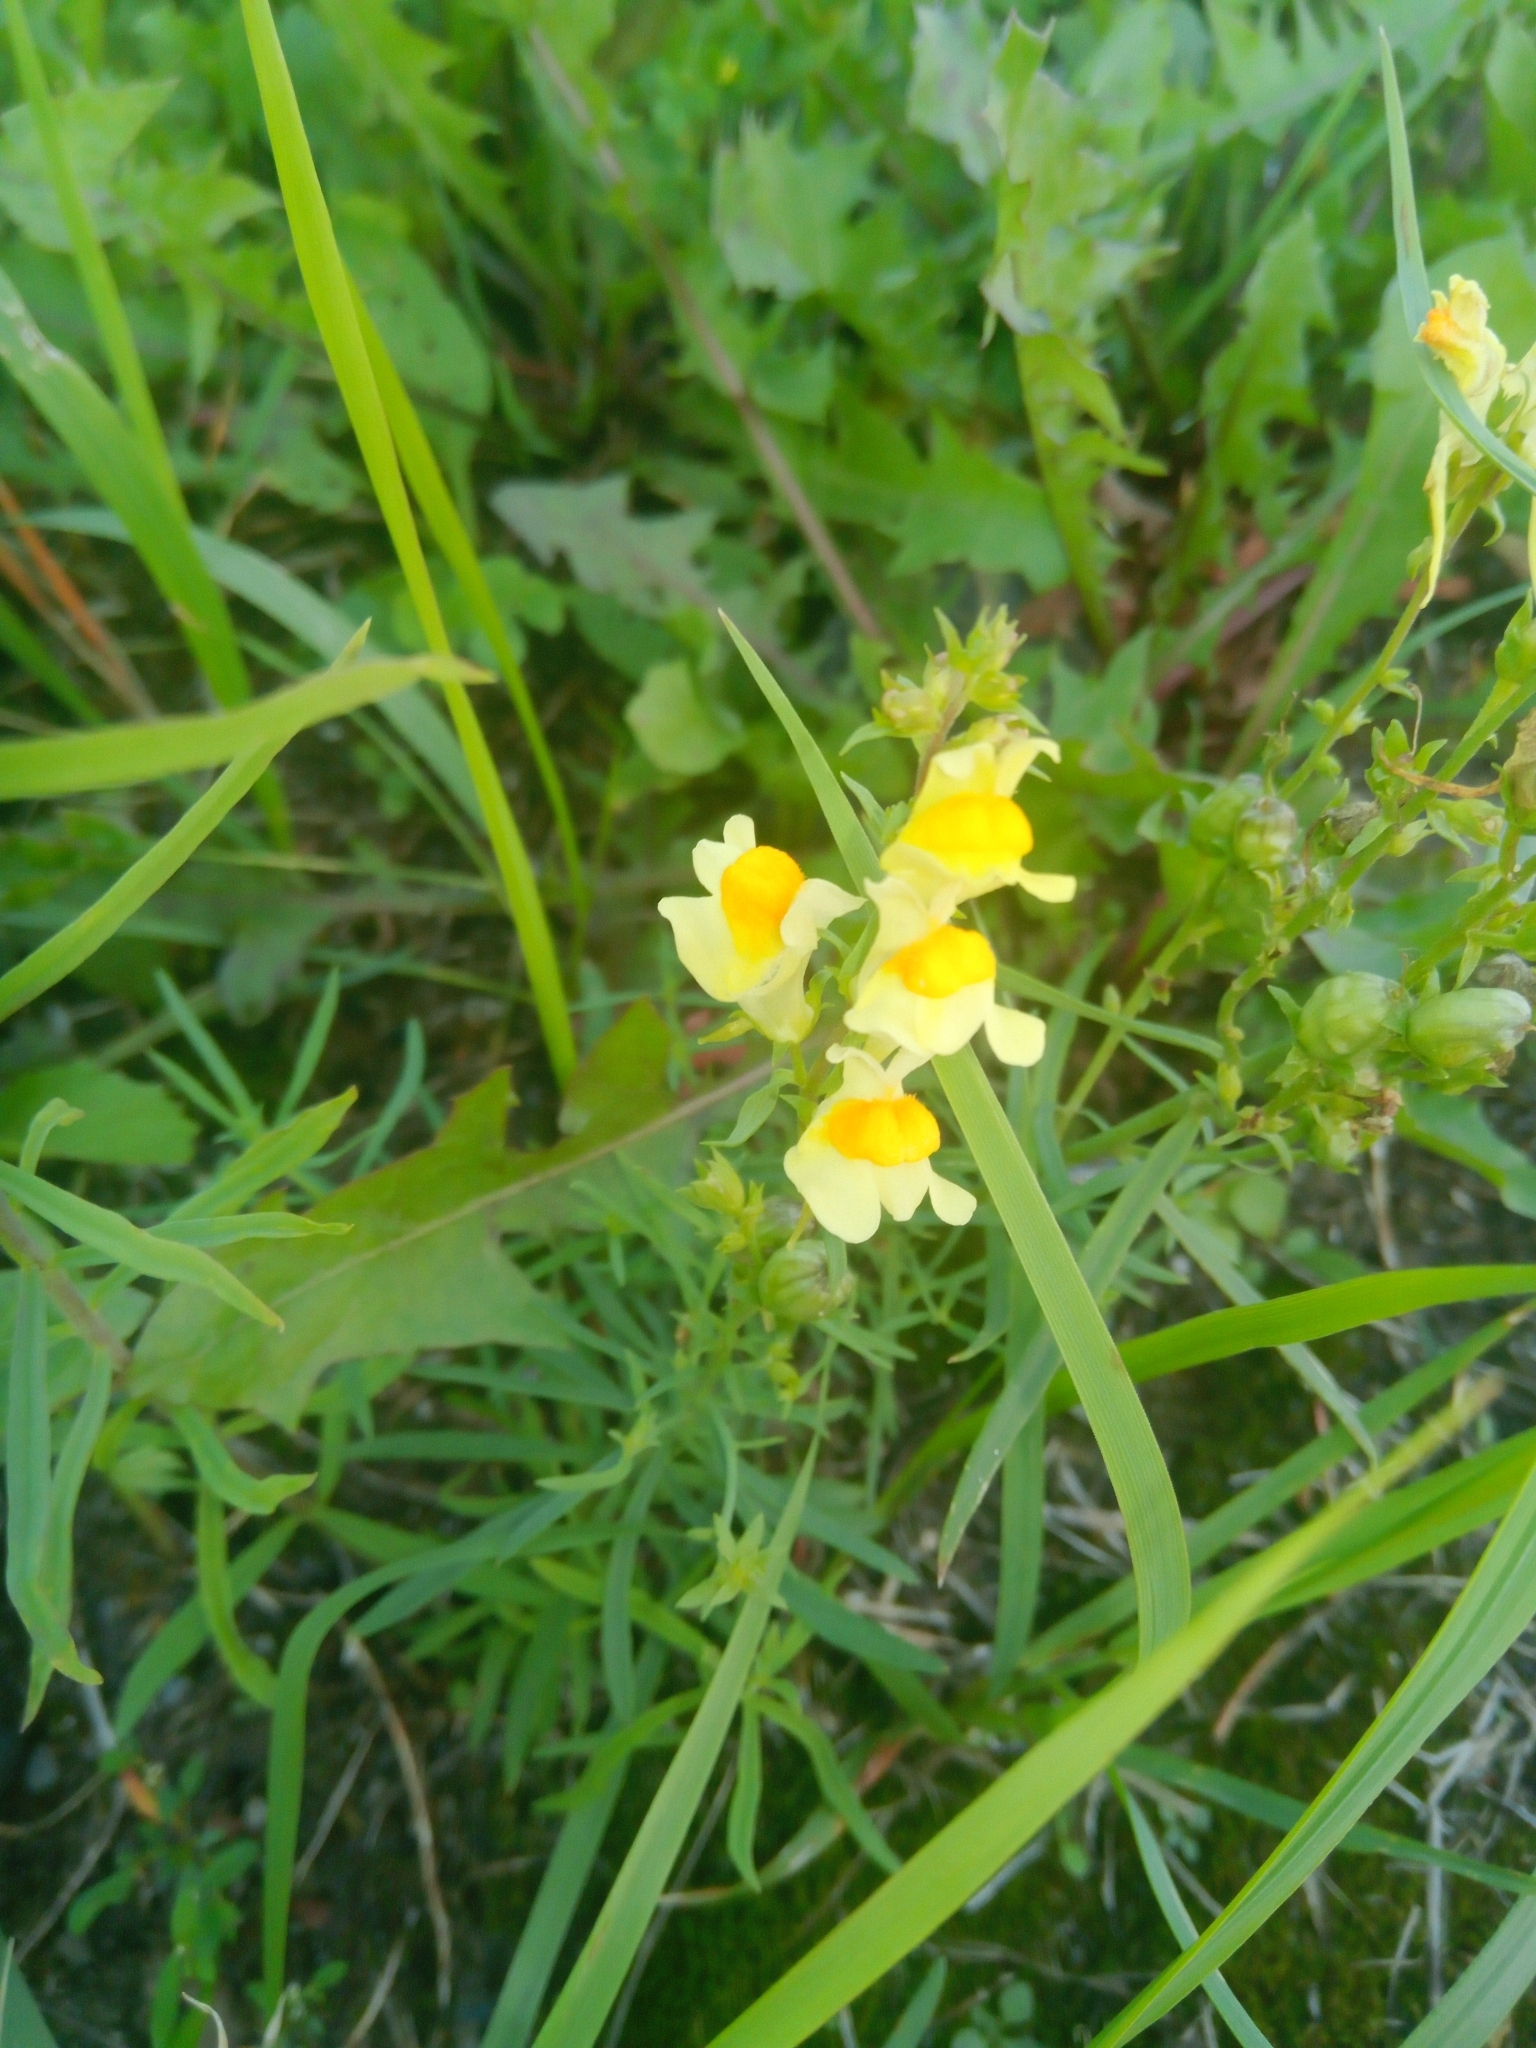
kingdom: Plantae
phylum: Tracheophyta
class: Magnoliopsida
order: Lamiales
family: Plantaginaceae
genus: Linaria
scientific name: Linaria vulgaris
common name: Butter and eggs
